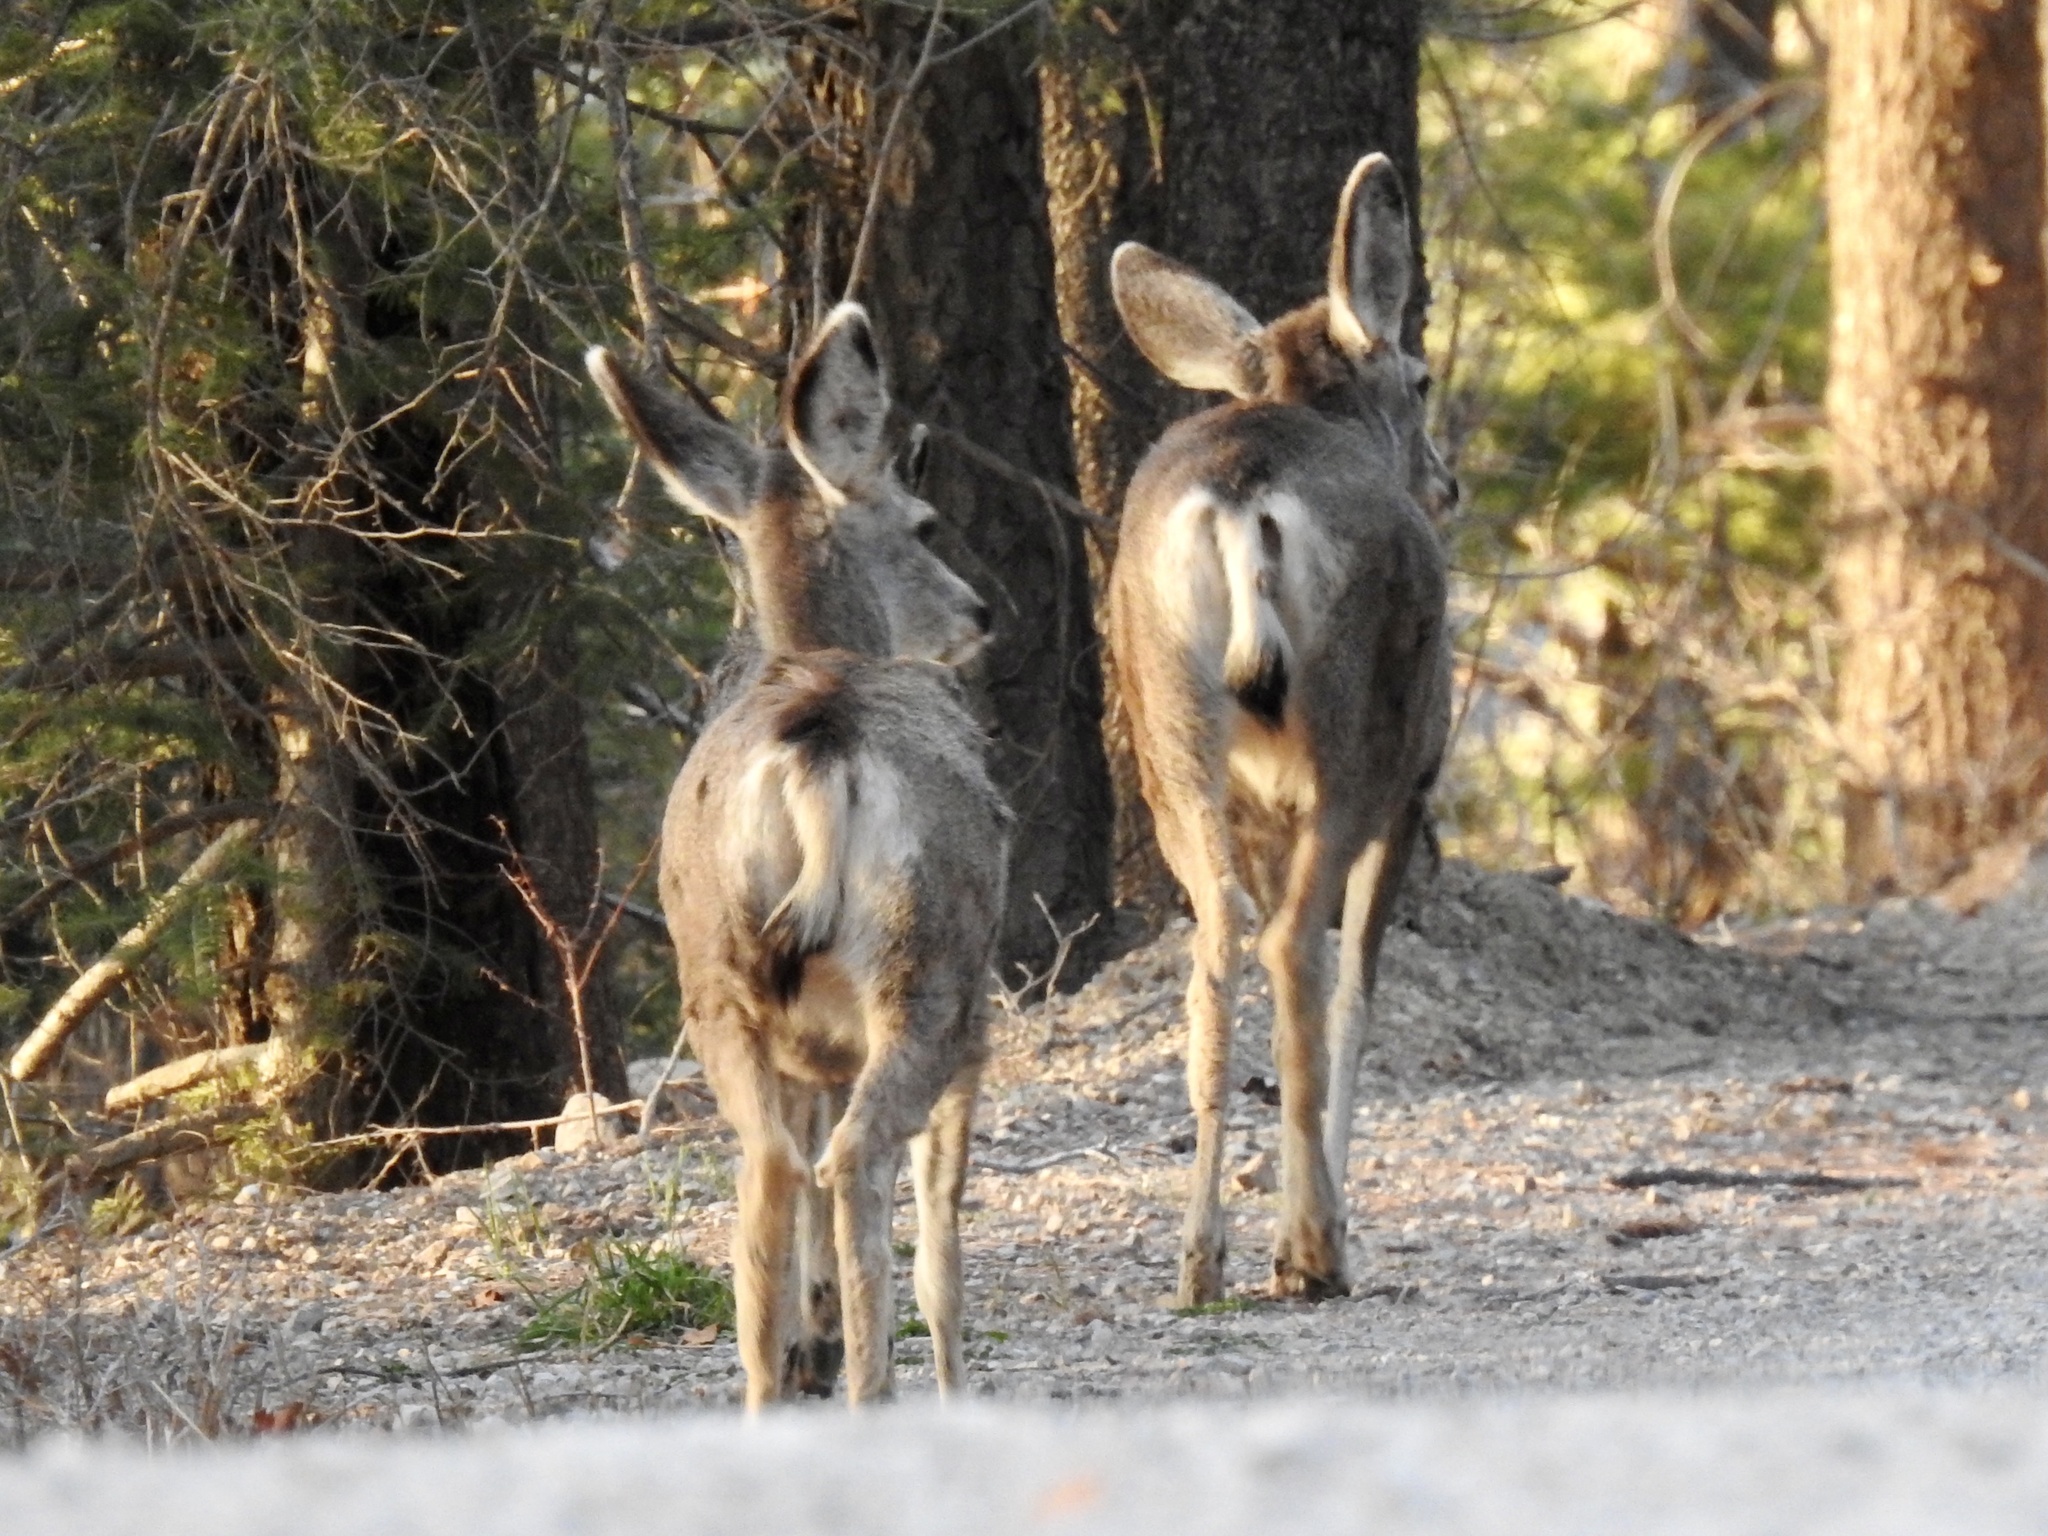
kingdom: Animalia
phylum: Chordata
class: Mammalia
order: Artiodactyla
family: Cervidae
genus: Odocoileus
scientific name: Odocoileus hemionus
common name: Mule deer
